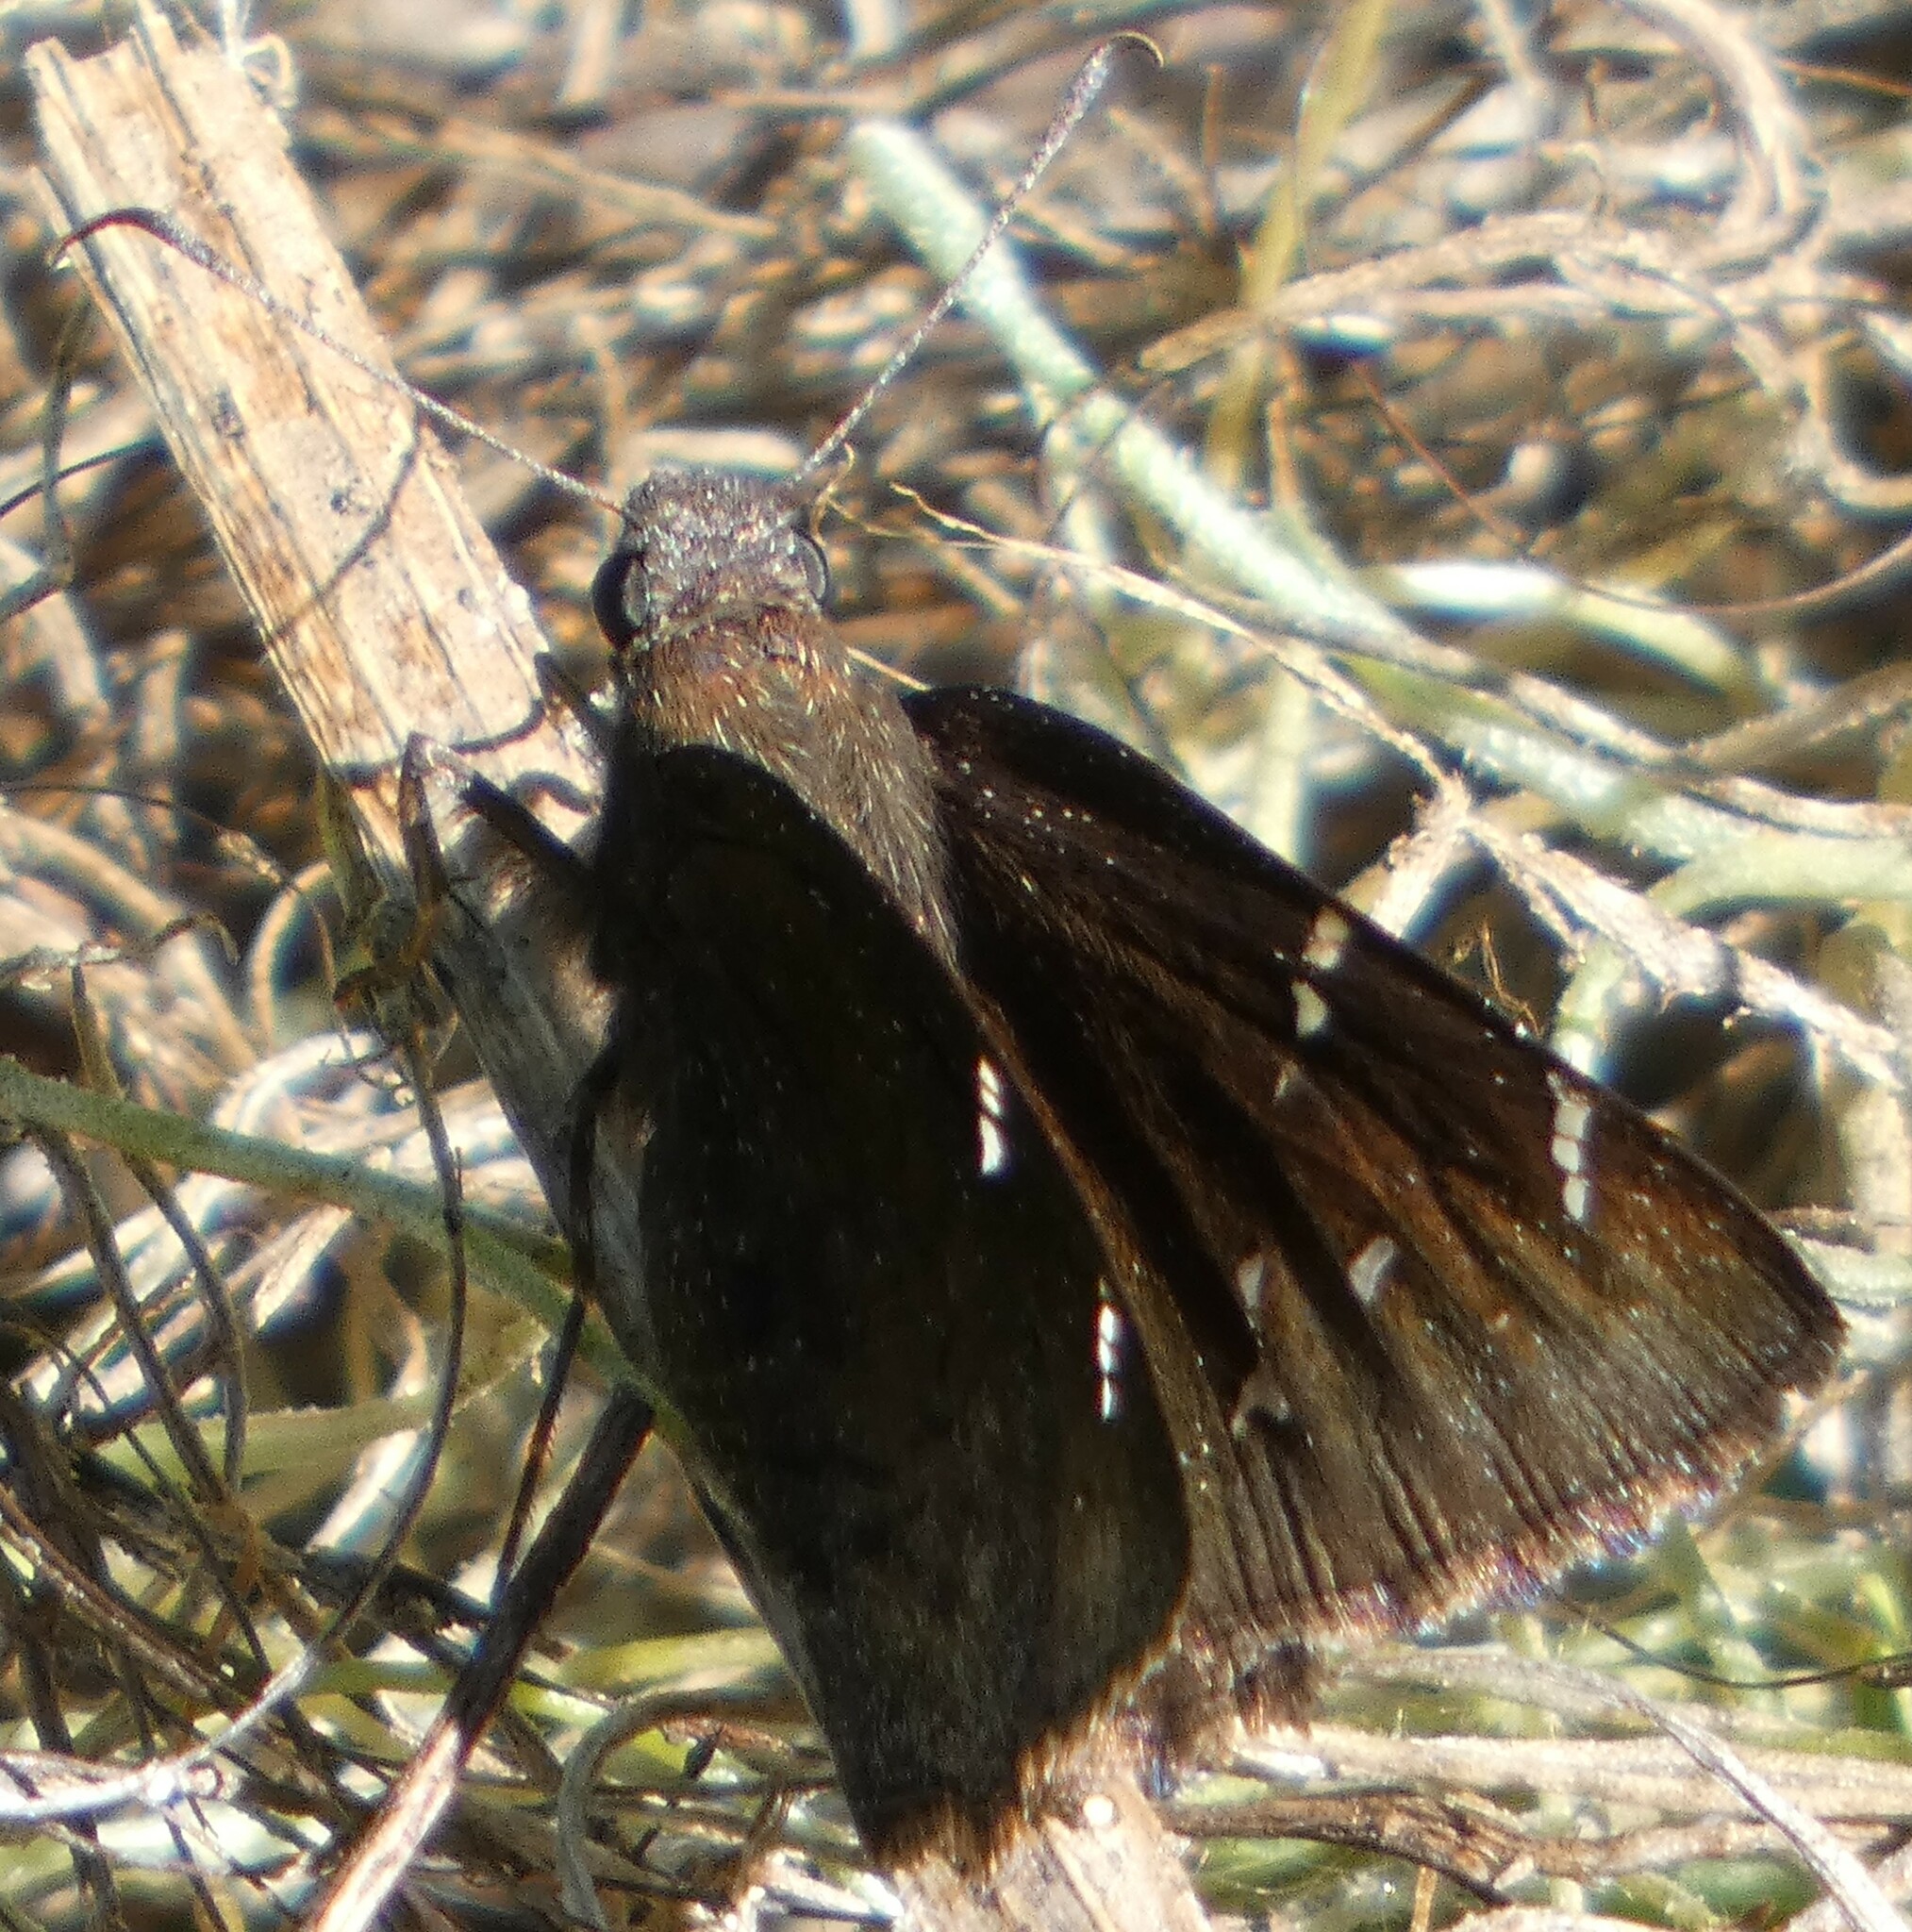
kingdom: Animalia
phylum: Arthropoda
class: Insecta
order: Lepidoptera
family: Hesperiidae
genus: Thorybes
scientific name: Thorybes pylades
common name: Northern cloudywing
